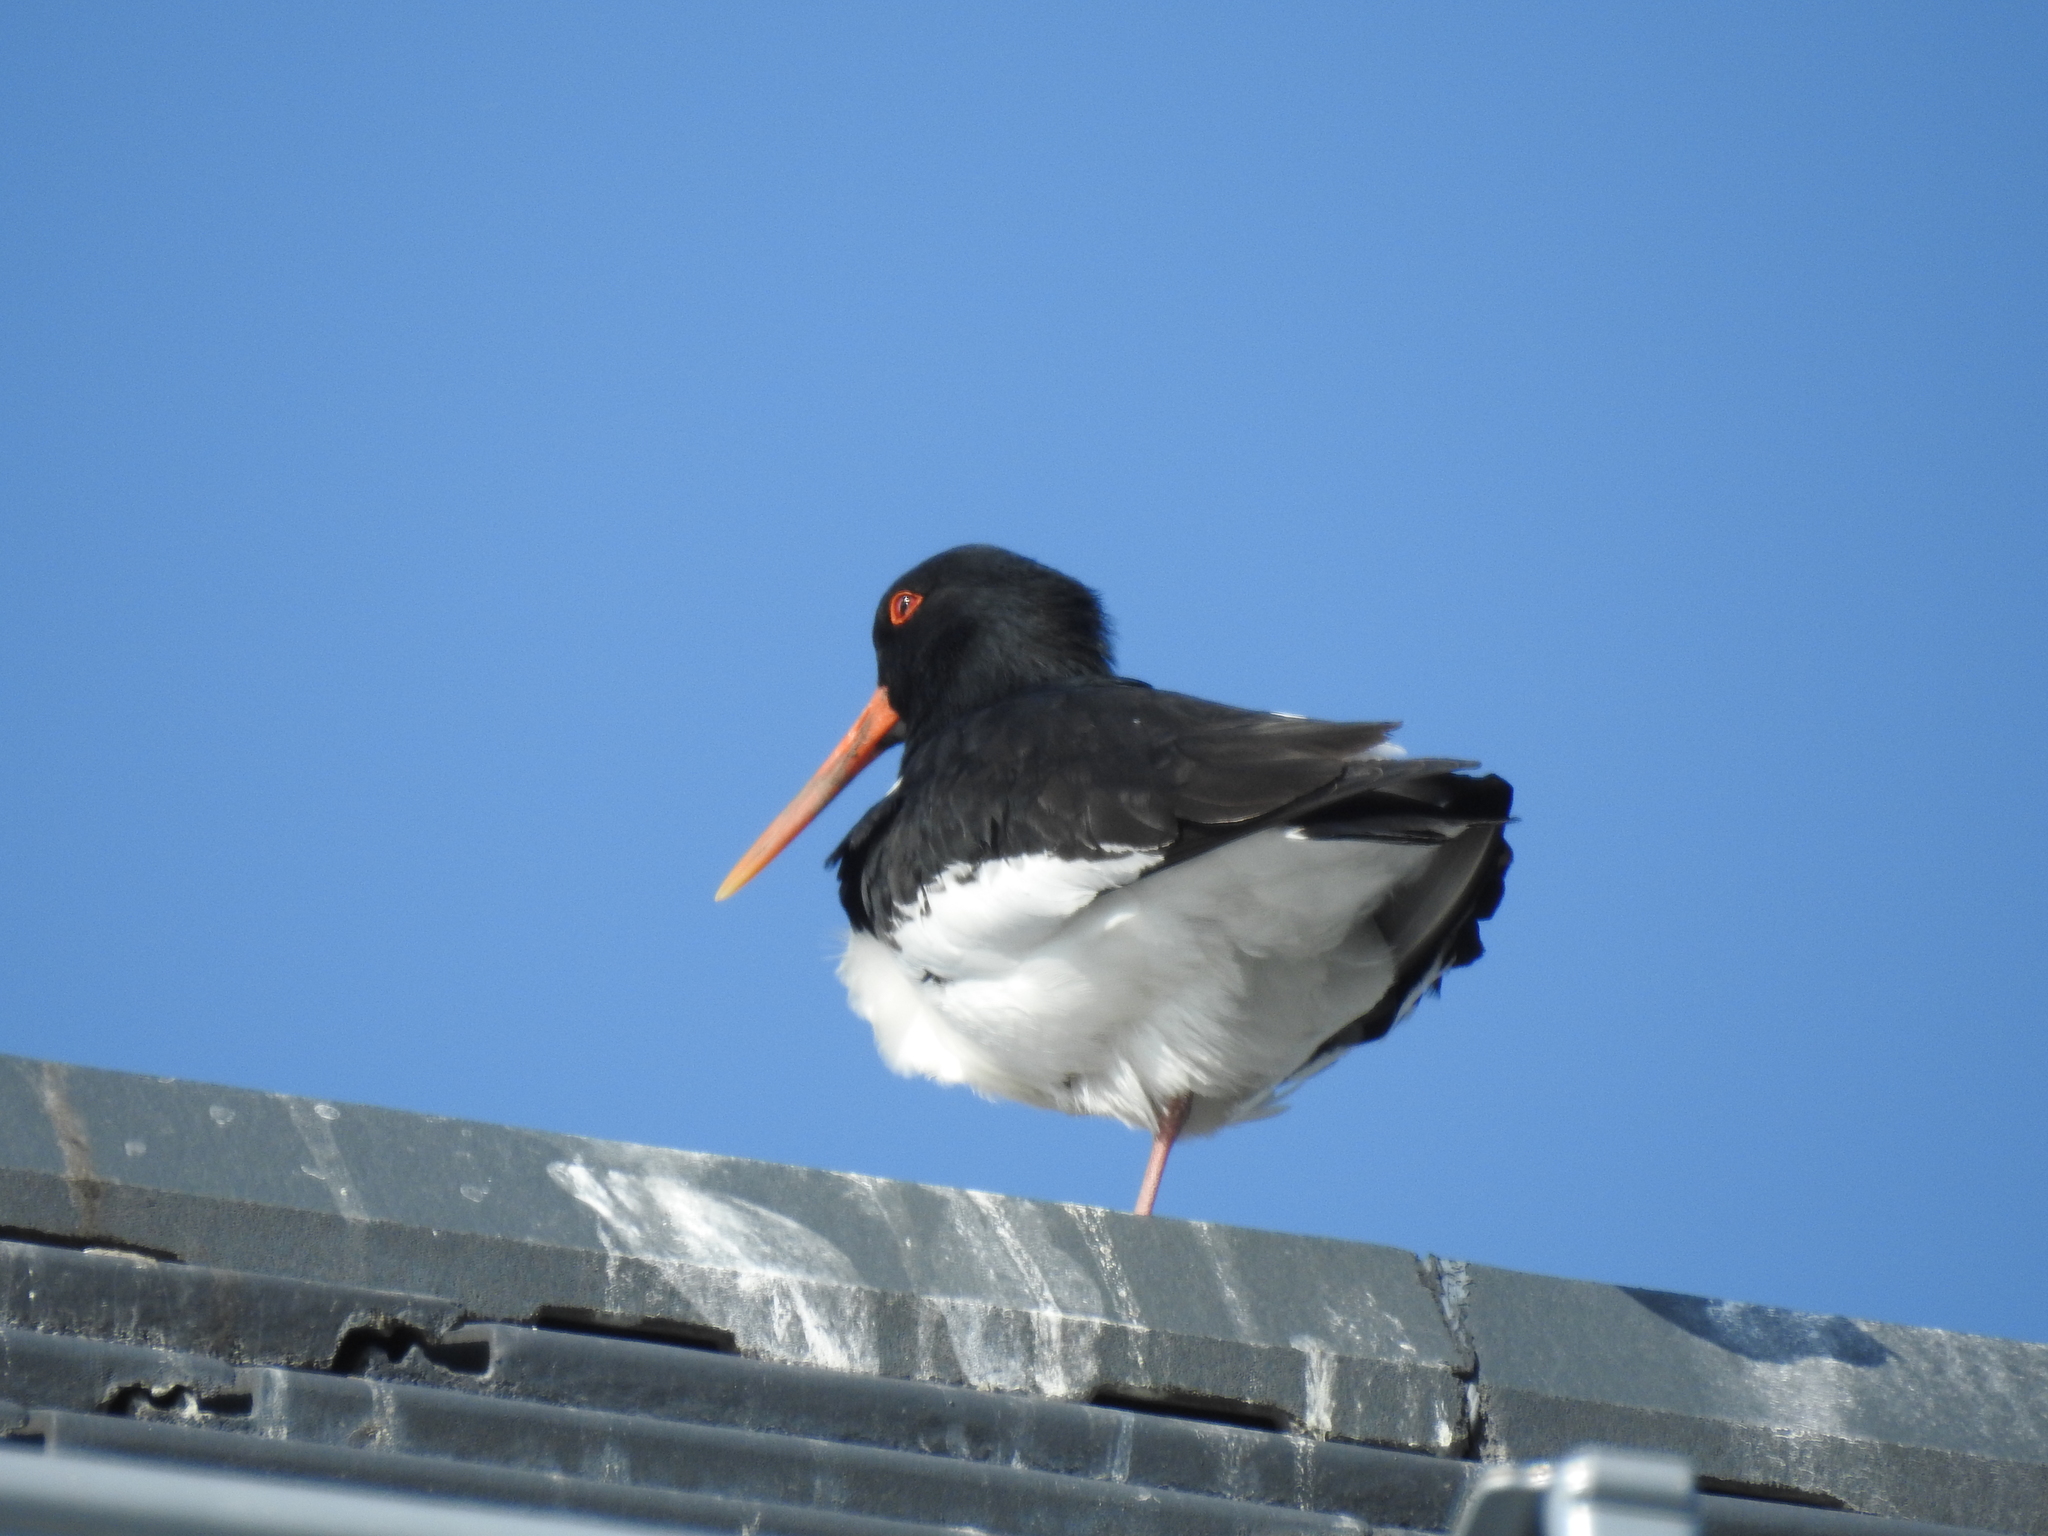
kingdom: Animalia
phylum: Chordata
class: Aves
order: Charadriiformes
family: Haematopodidae
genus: Haematopus
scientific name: Haematopus ostralegus
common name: Eurasian oystercatcher
